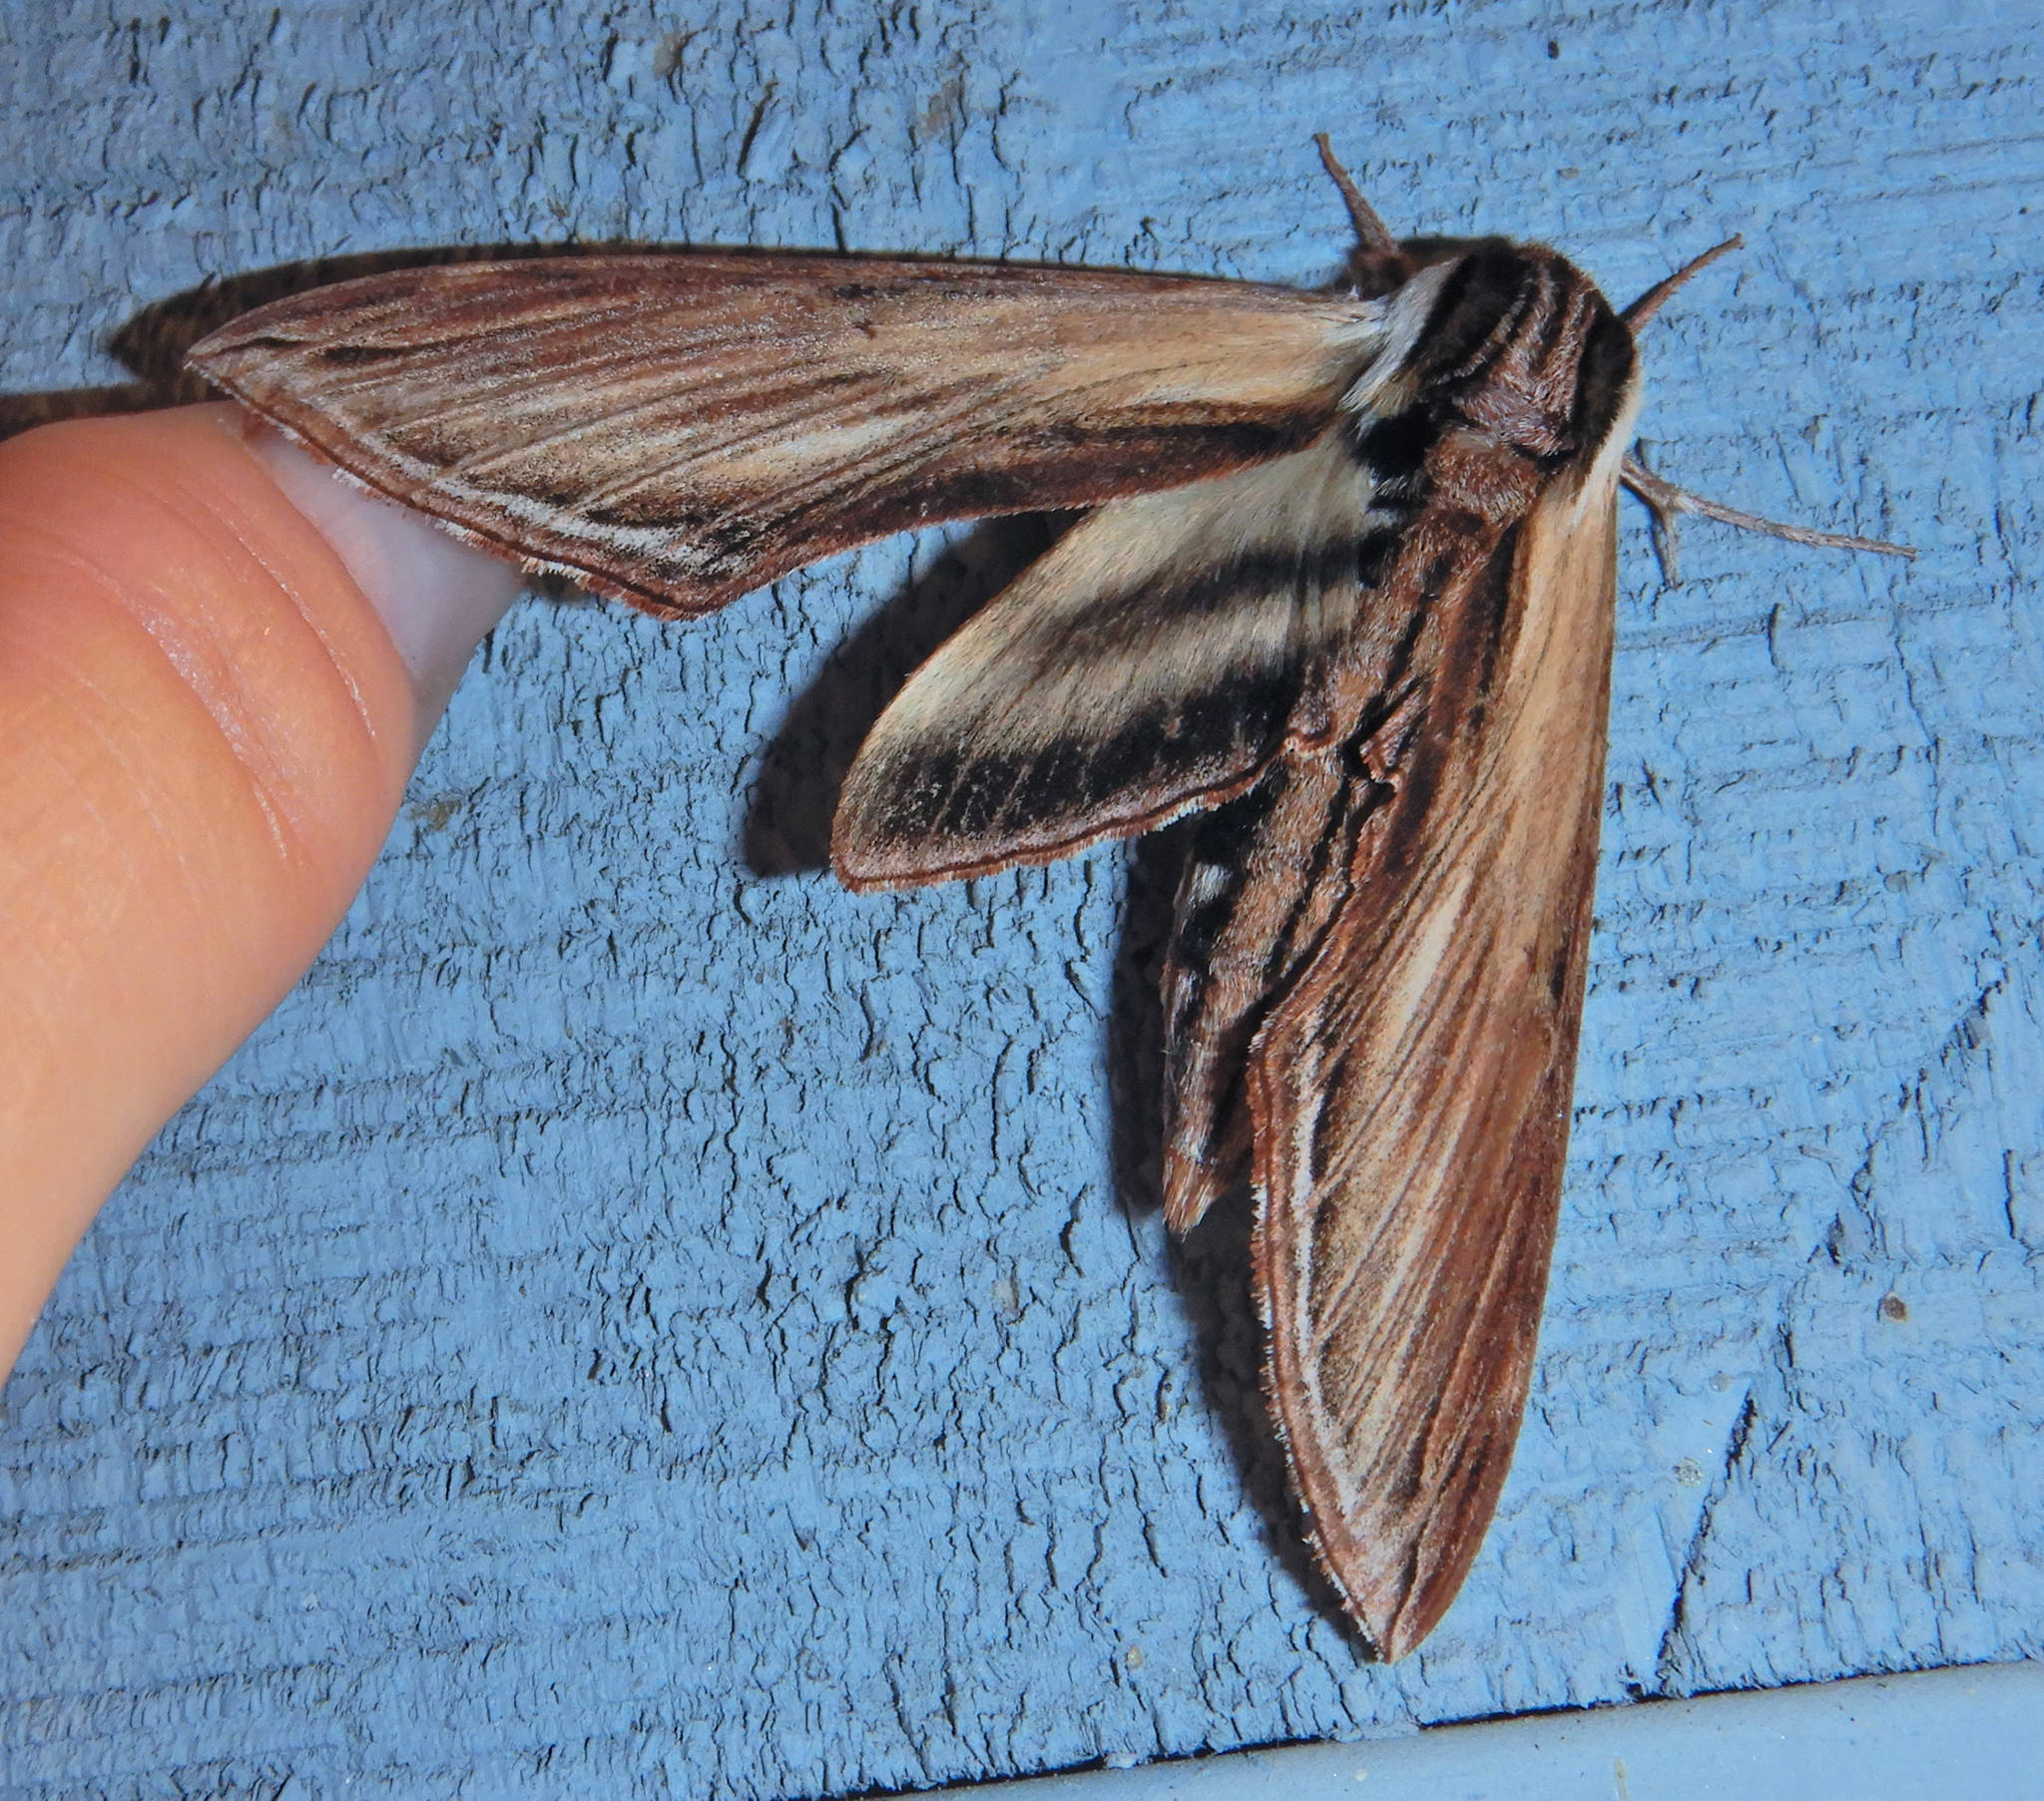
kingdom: Animalia
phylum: Arthropoda
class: Insecta
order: Lepidoptera
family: Sphingidae
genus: Sphinx
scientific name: Sphinx kalmiae
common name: Laurel sphinx
